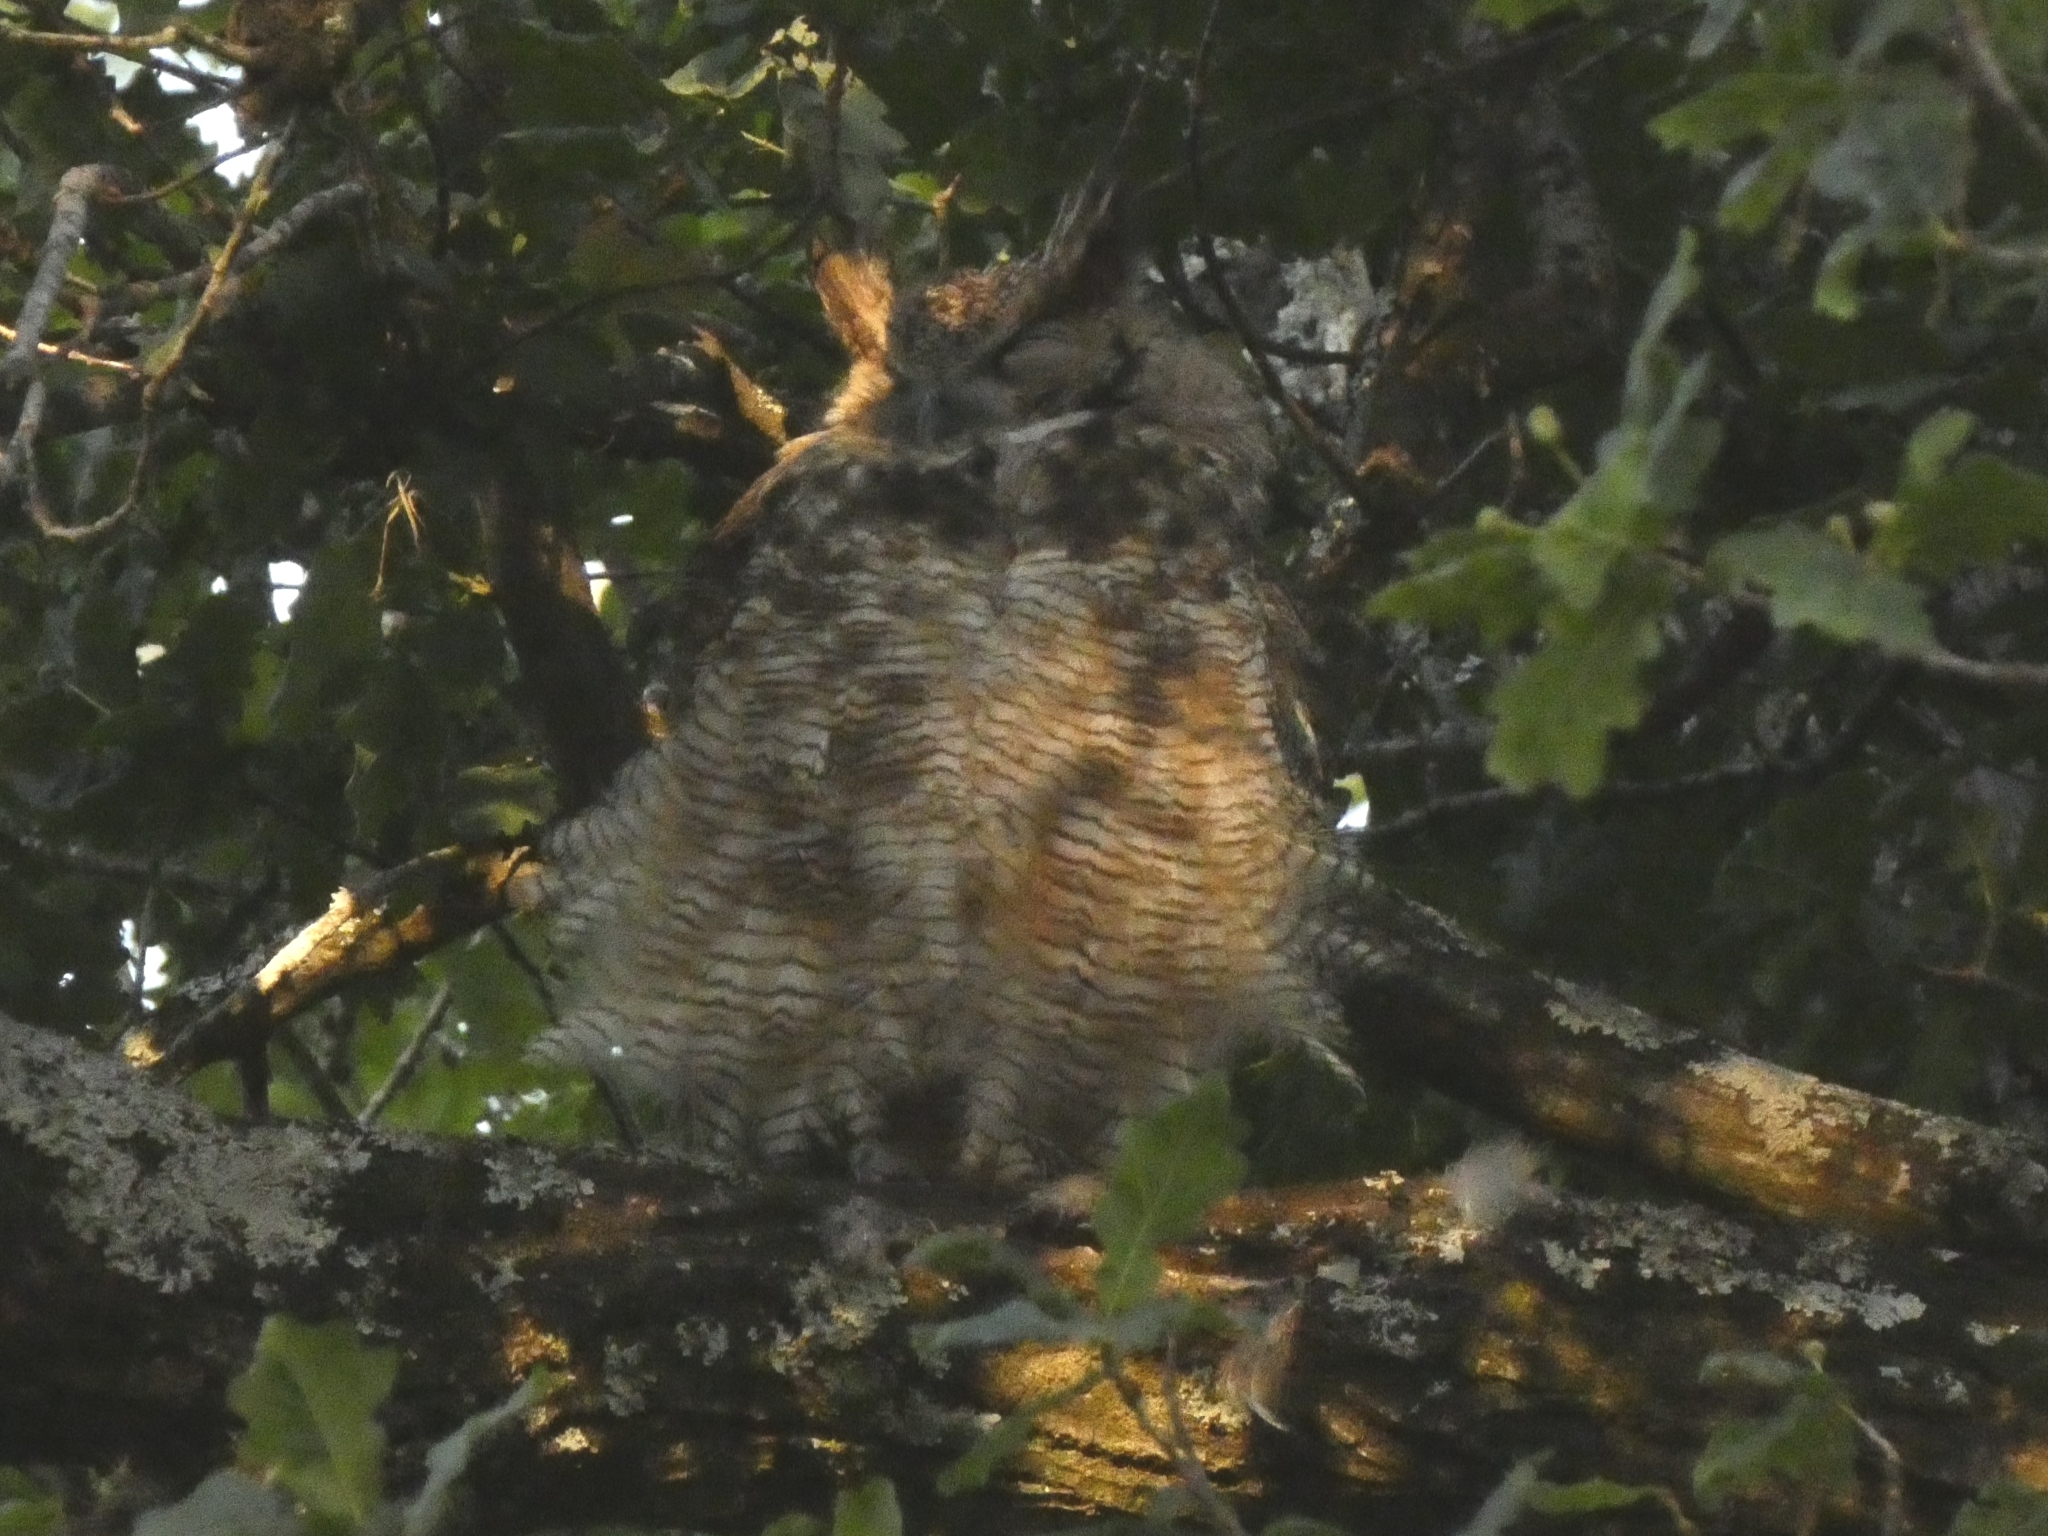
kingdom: Animalia
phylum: Chordata
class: Aves
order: Strigiformes
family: Strigidae
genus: Bubo
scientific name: Bubo virginianus
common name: Great horned owl
